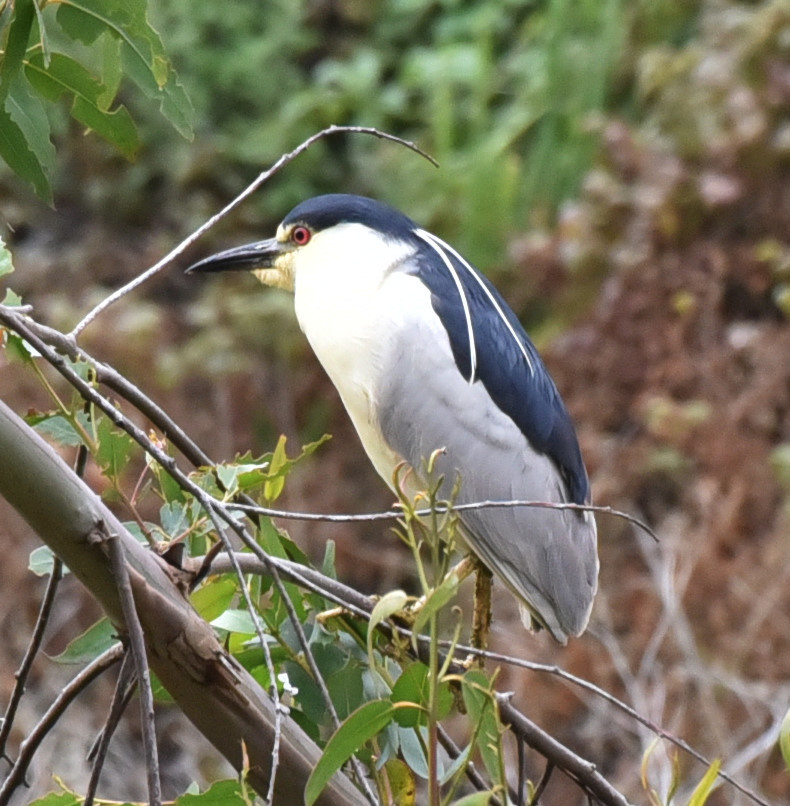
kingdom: Animalia
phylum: Chordata
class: Aves
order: Pelecaniformes
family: Ardeidae
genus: Nycticorax
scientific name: Nycticorax nycticorax
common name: Black-crowned night heron
